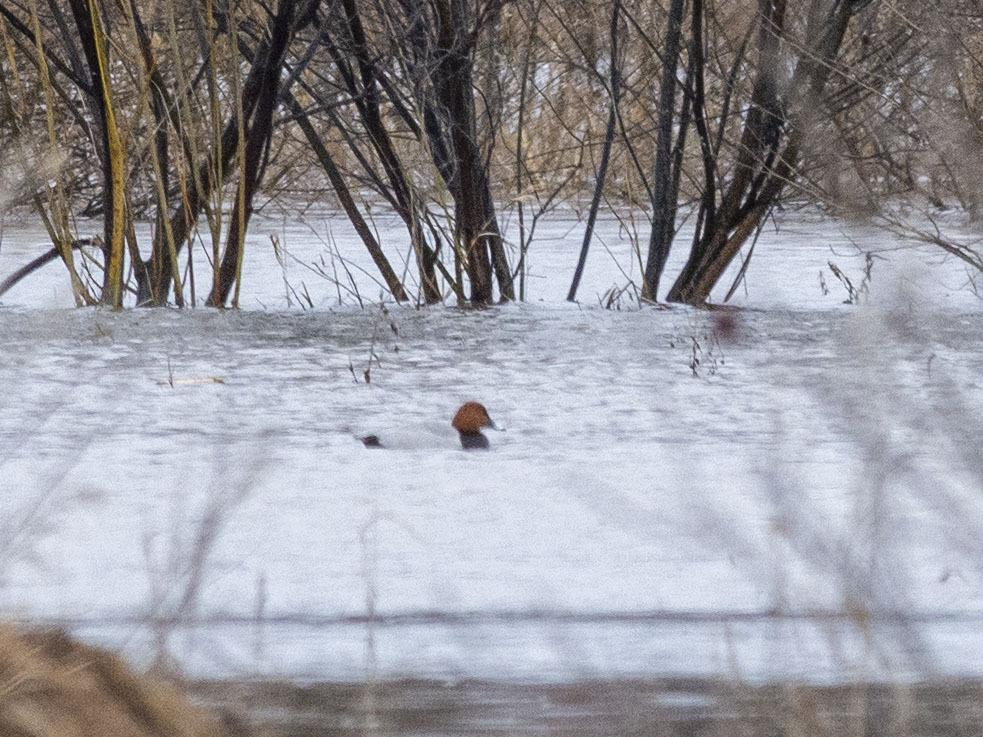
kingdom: Animalia
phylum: Chordata
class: Aves
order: Anseriformes
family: Anatidae
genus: Aythya
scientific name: Aythya ferina
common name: Common pochard
